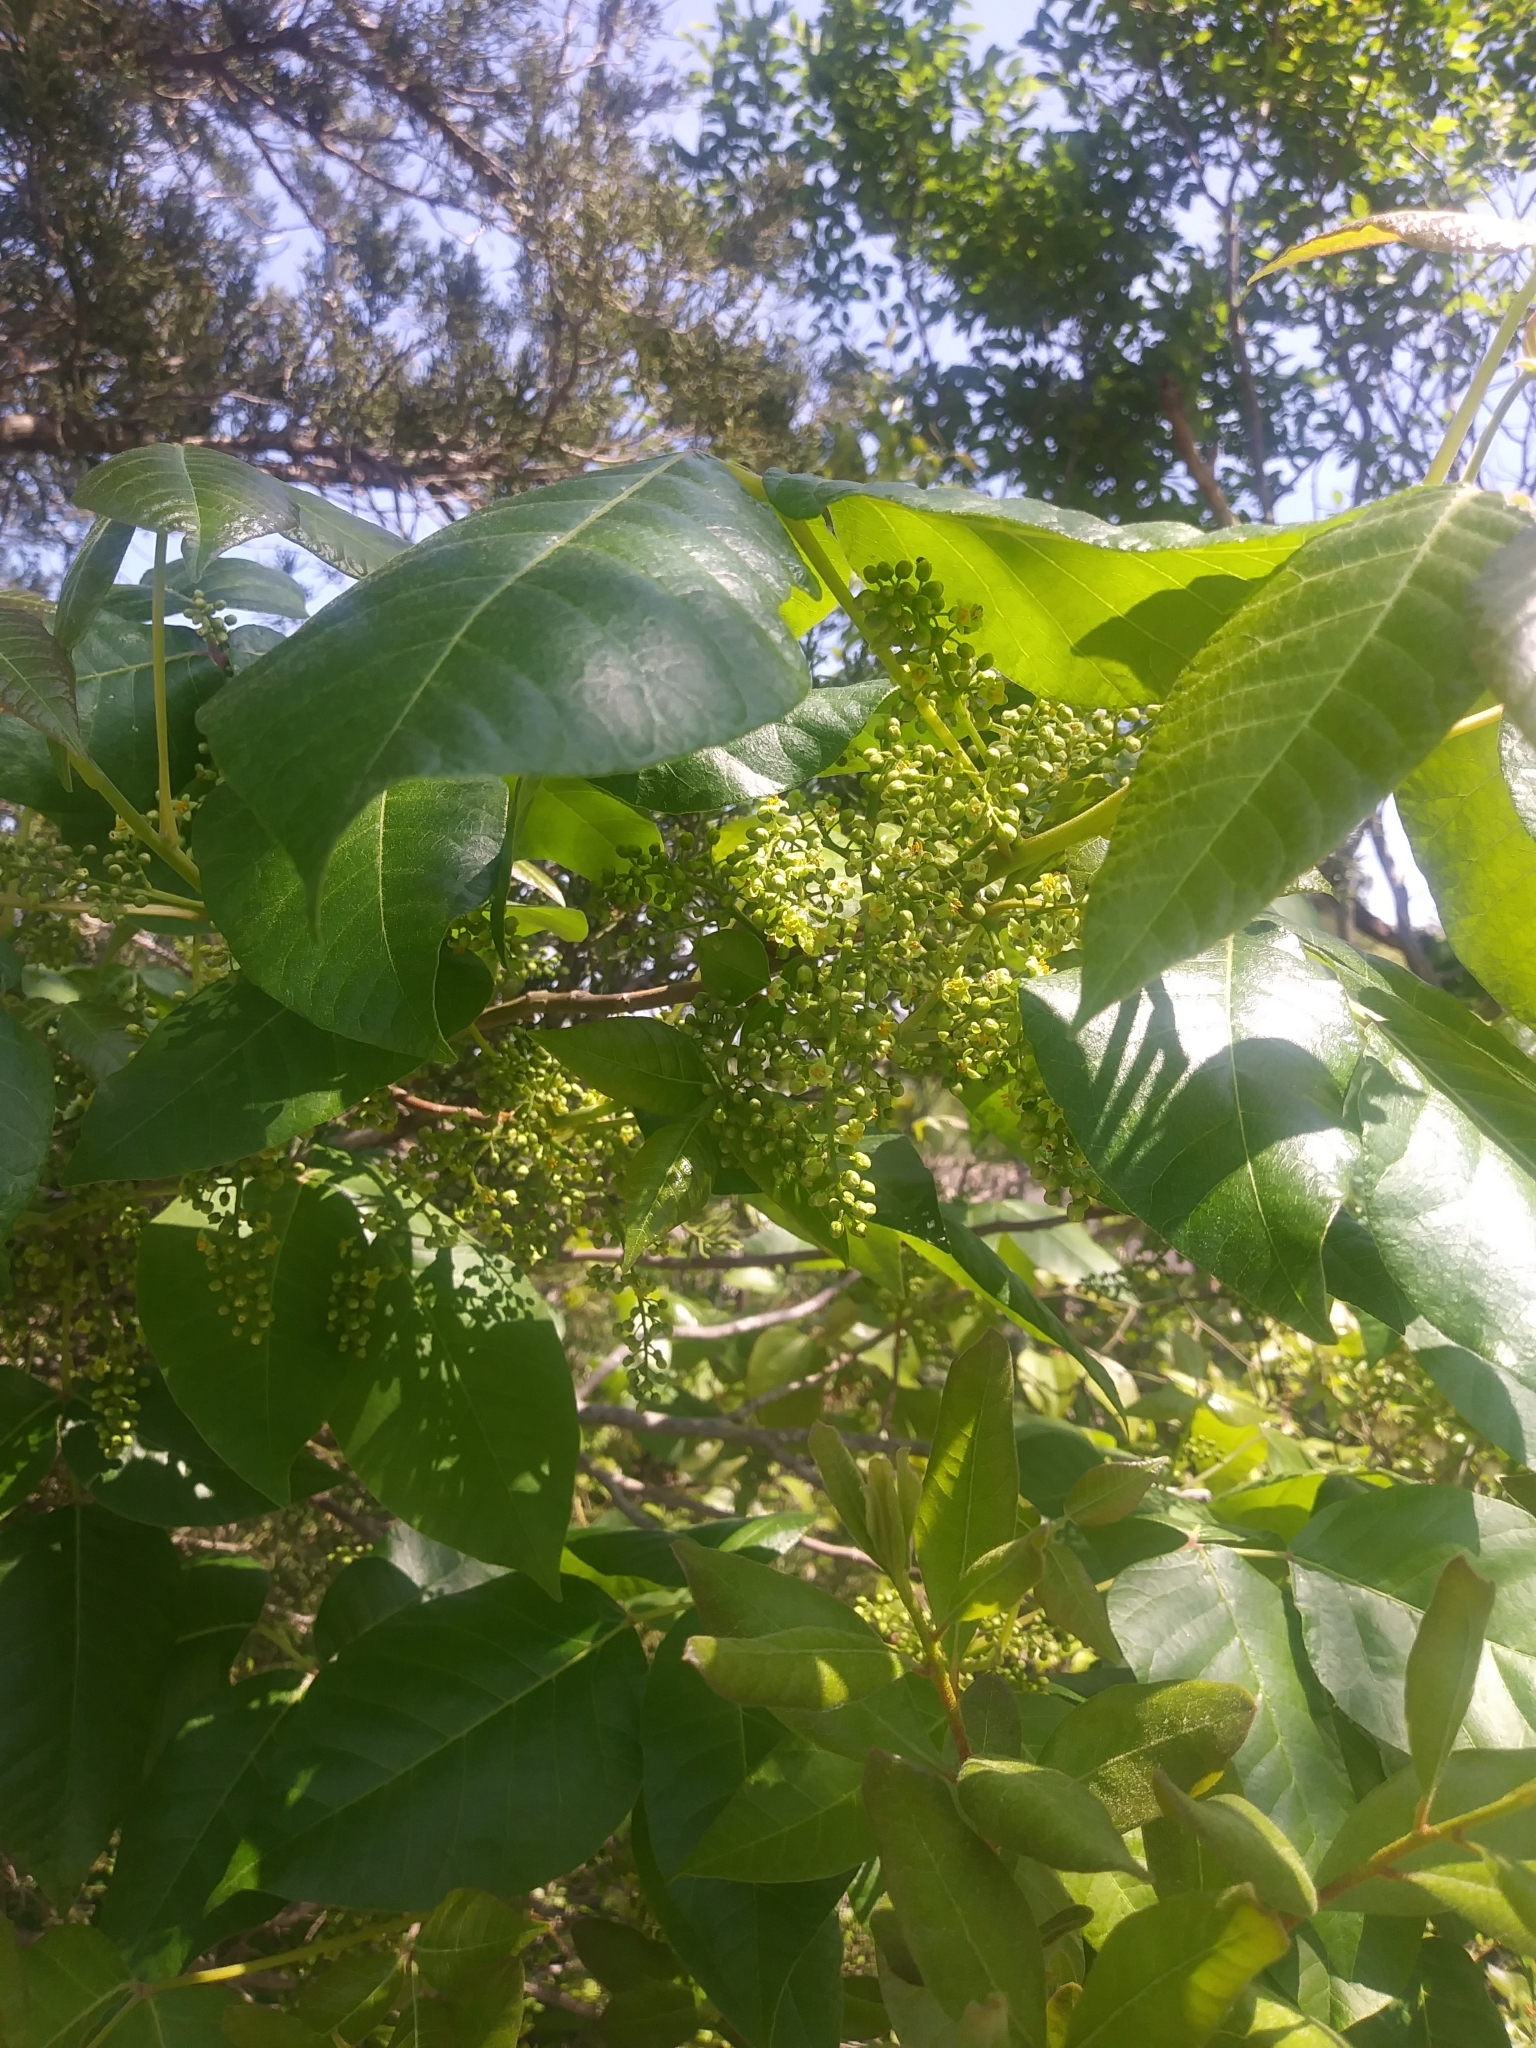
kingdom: Plantae
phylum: Tracheophyta
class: Magnoliopsida
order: Sapindales
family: Anacardiaceae
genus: Toxicodendron
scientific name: Toxicodendron radicans
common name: Poison ivy
